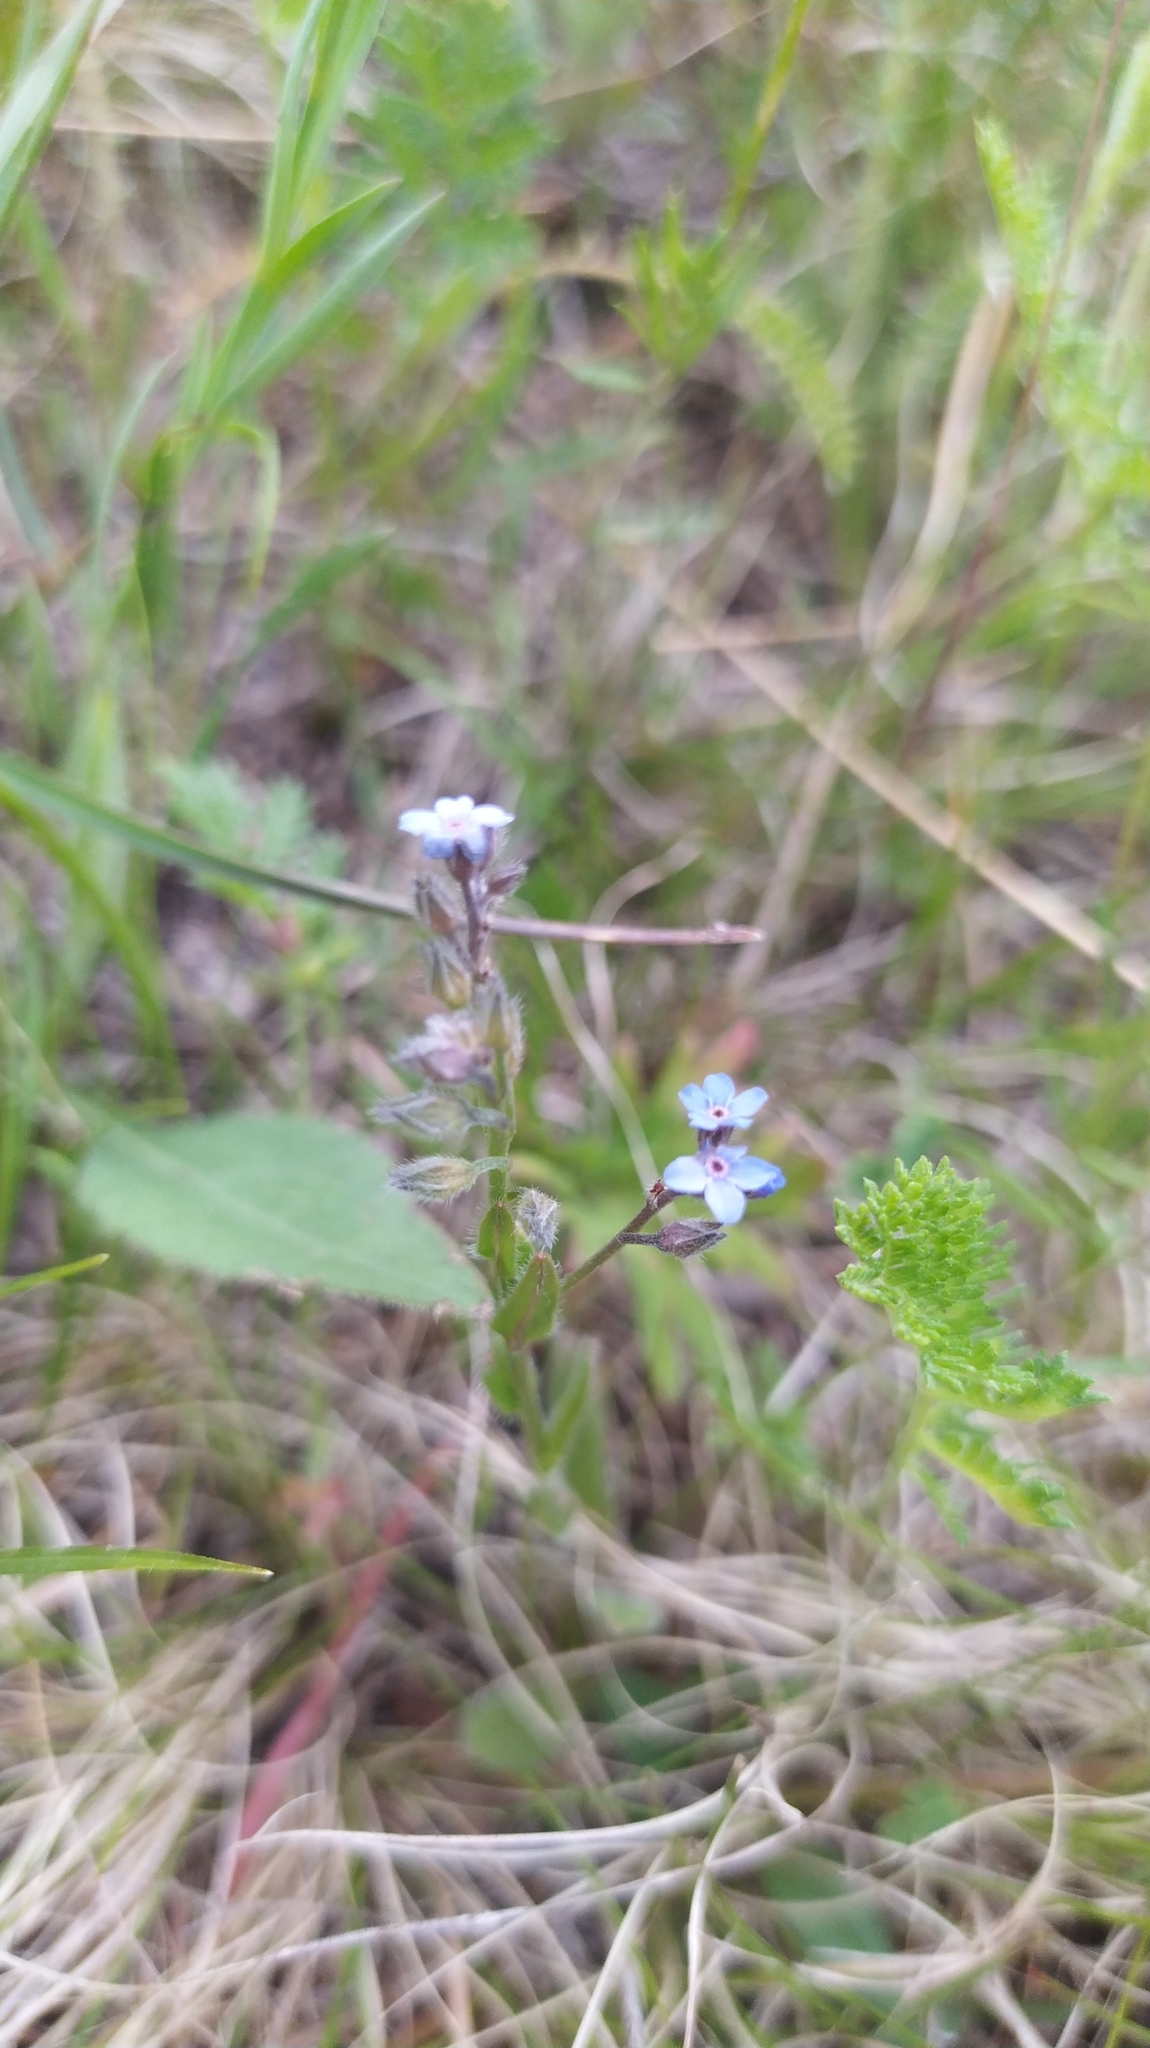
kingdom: Plantae
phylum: Tracheophyta
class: Magnoliopsida
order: Boraginales
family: Boraginaceae
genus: Myosotis
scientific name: Myosotis imitata
